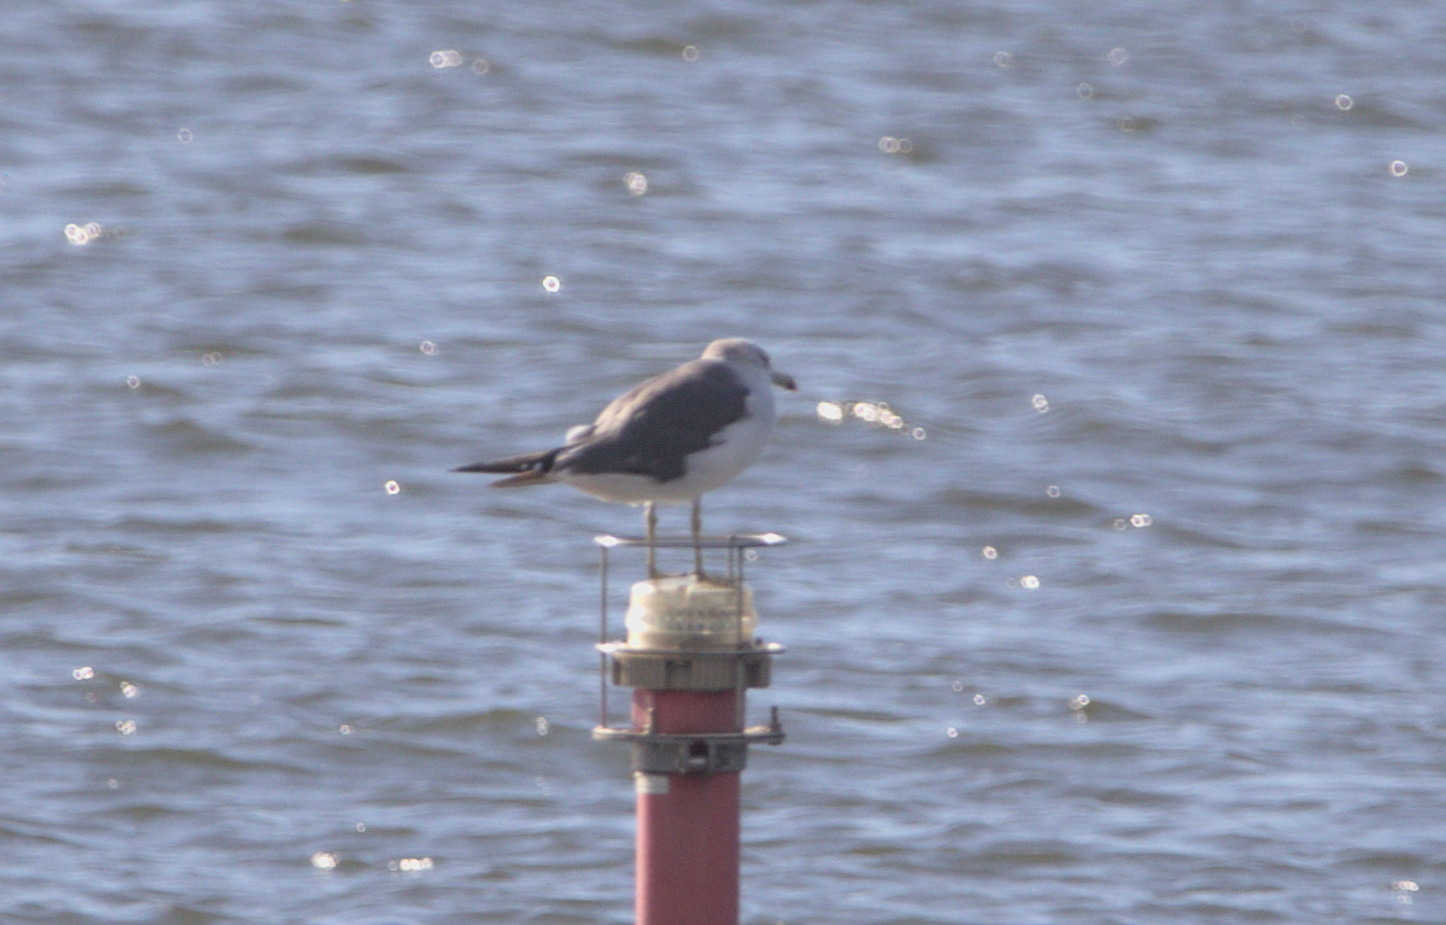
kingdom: Animalia
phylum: Chordata
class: Aves
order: Charadriiformes
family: Laridae
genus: Larus
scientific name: Larus crassirostris
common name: Black-tailed gull
